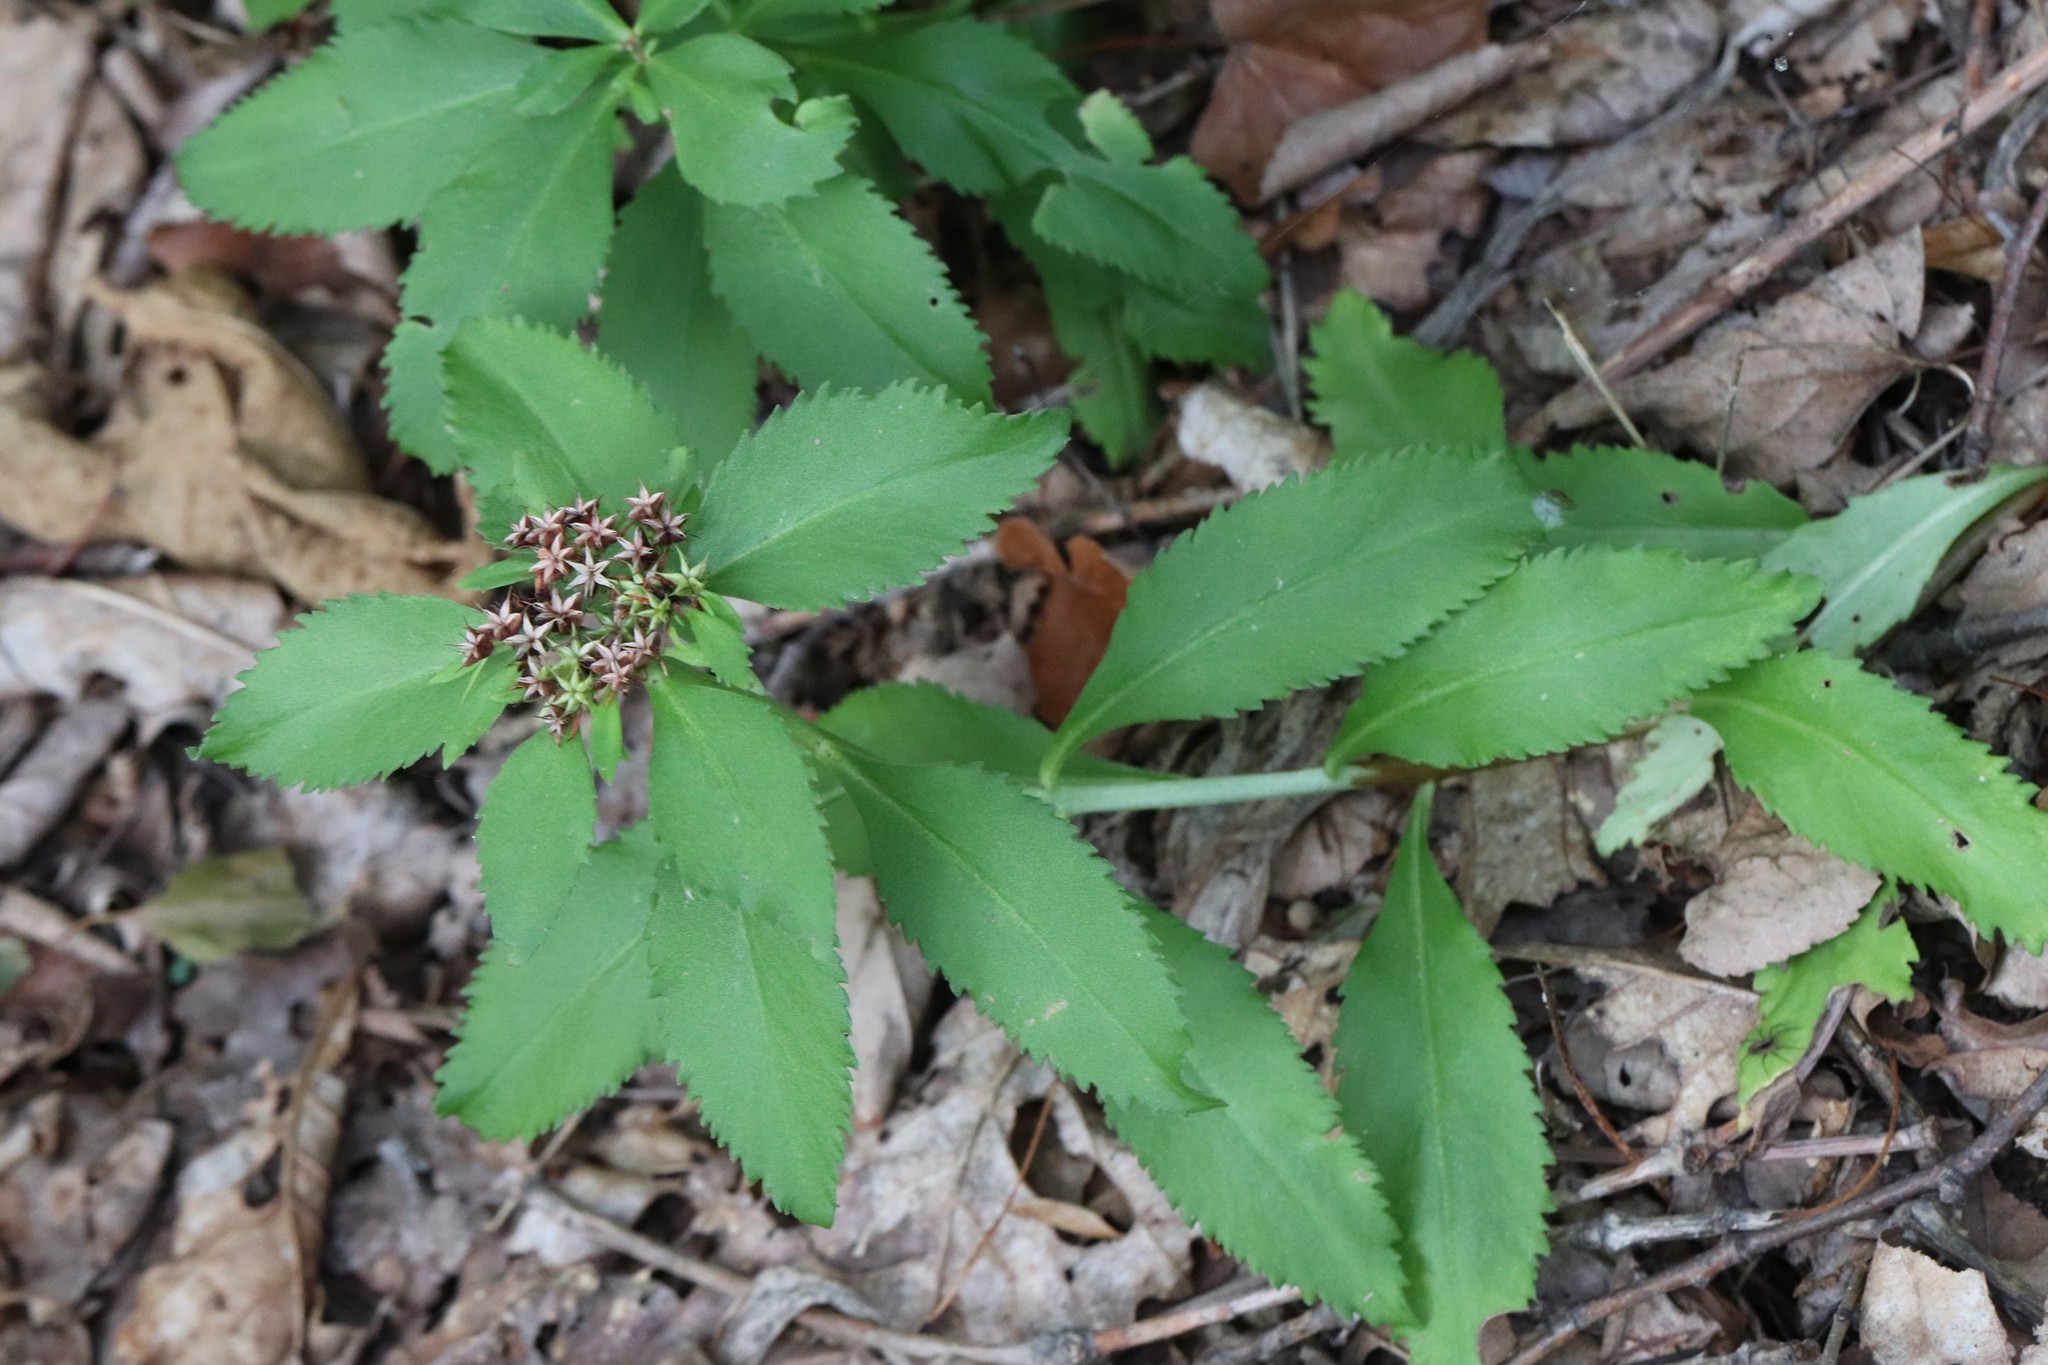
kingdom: Plantae
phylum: Tracheophyta
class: Magnoliopsida
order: Saxifragales
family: Crassulaceae
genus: Phedimus
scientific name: Phedimus aizoon
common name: Orpin aizoon
